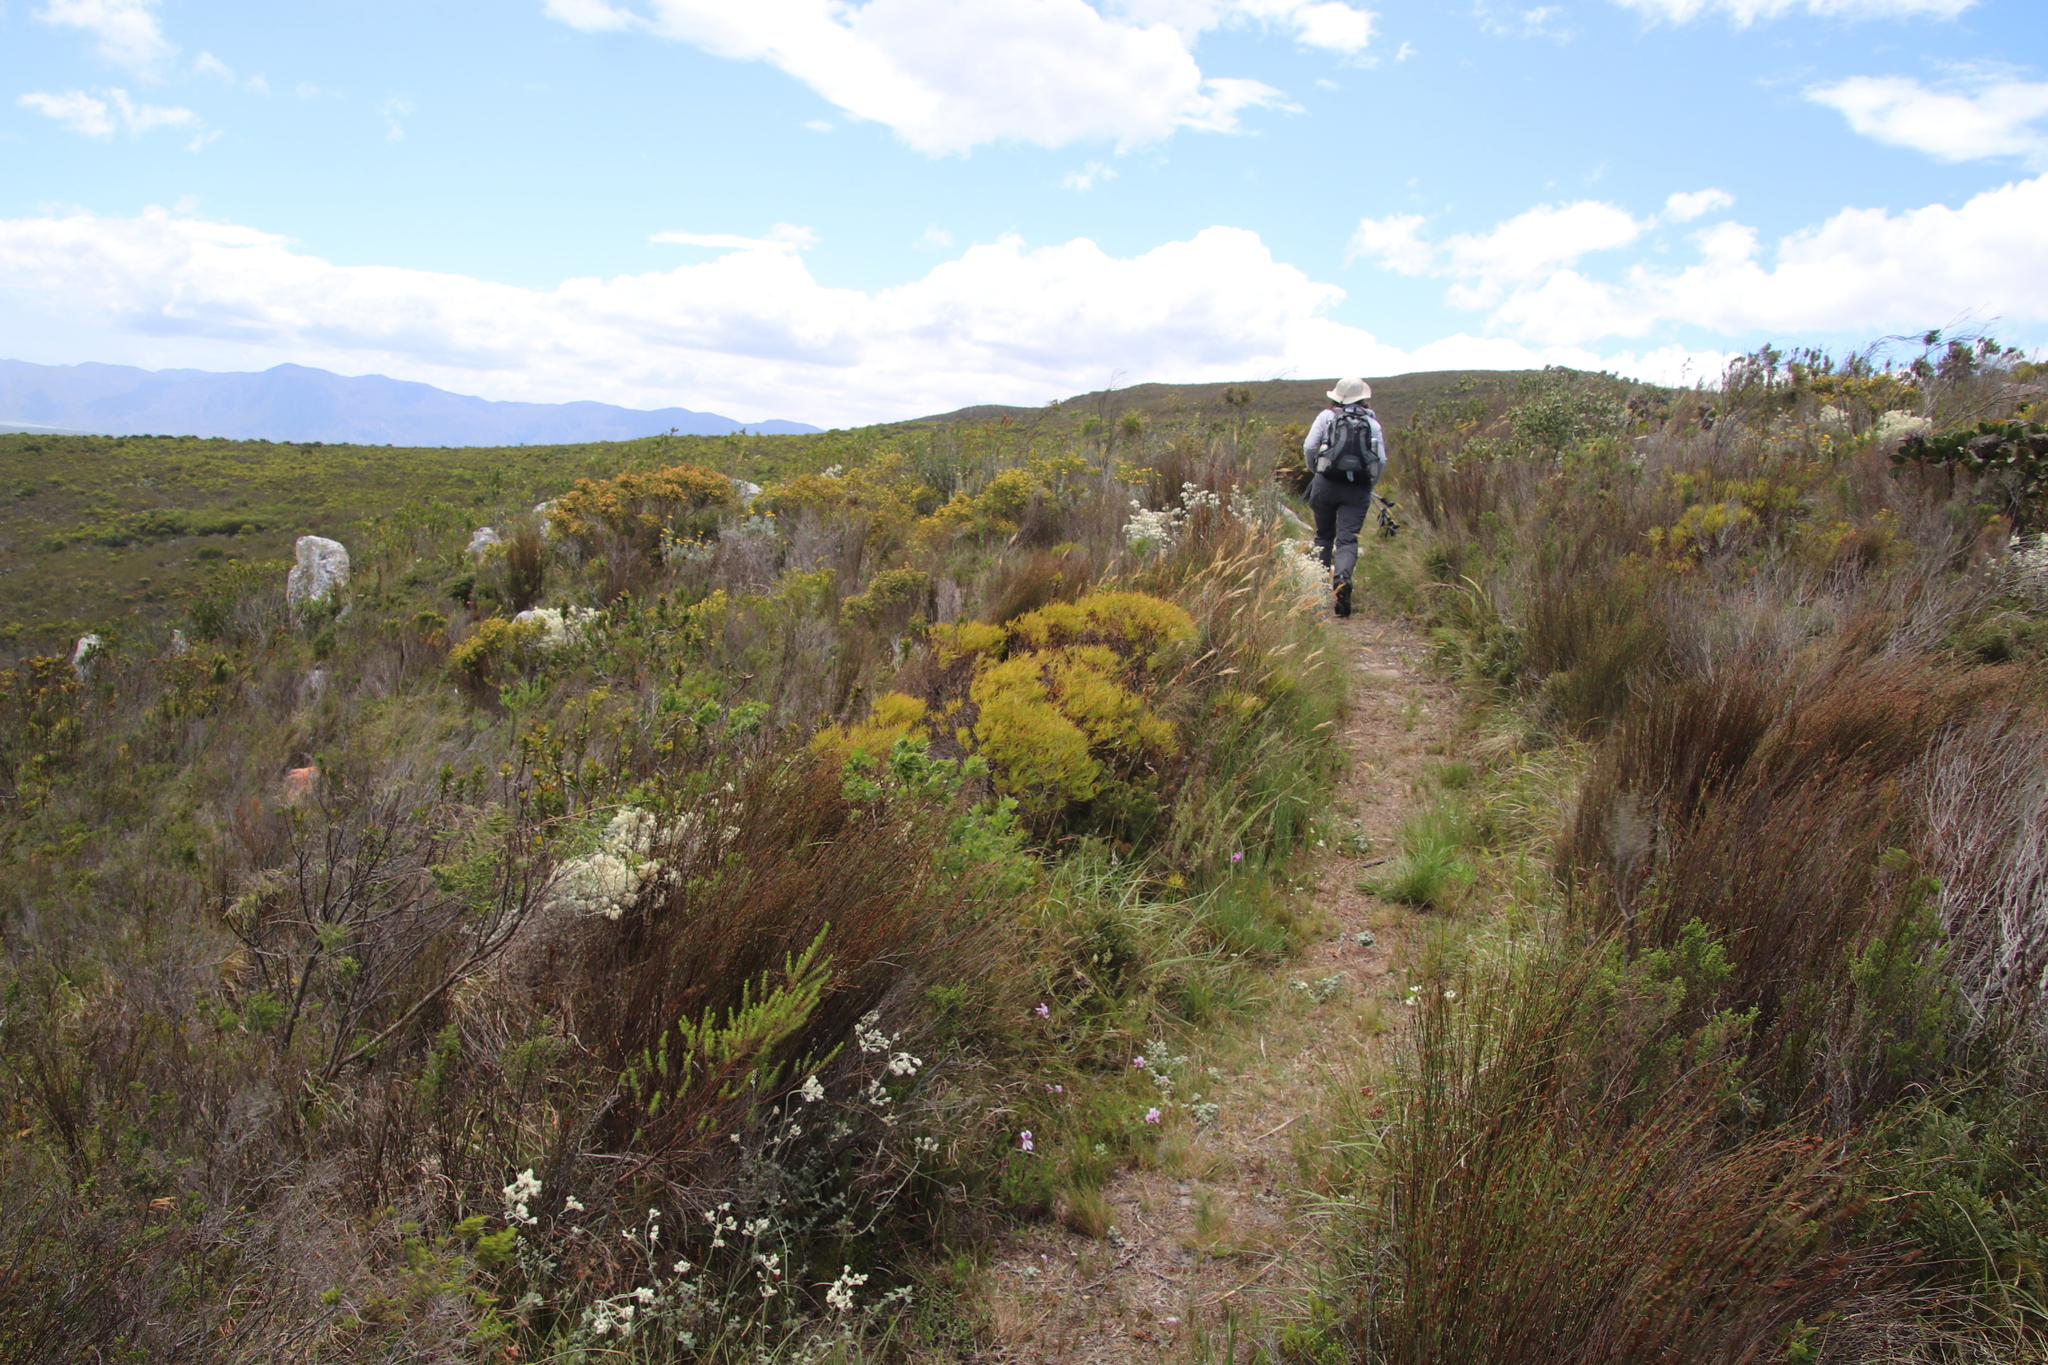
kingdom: Plantae
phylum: Tracheophyta
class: Magnoliopsida
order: Proteales
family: Proteaceae
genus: Leucadendron
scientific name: Leucadendron salignum
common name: Common sunshine conebush
